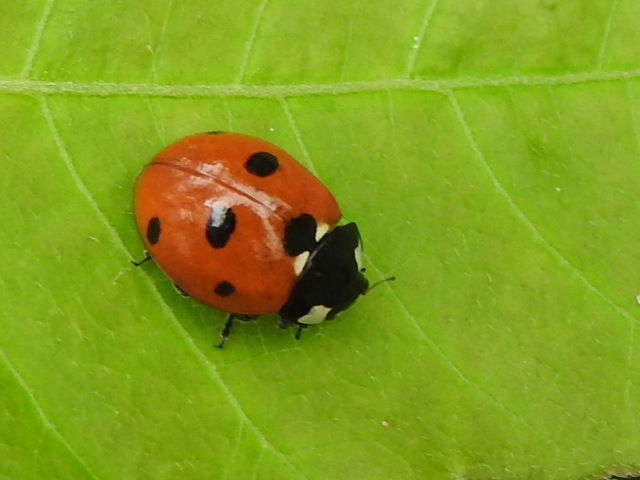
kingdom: Animalia
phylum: Arthropoda
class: Insecta
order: Coleoptera
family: Coccinellidae
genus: Coccinella
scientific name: Coccinella septempunctata
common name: Sevenspotted lady beetle
